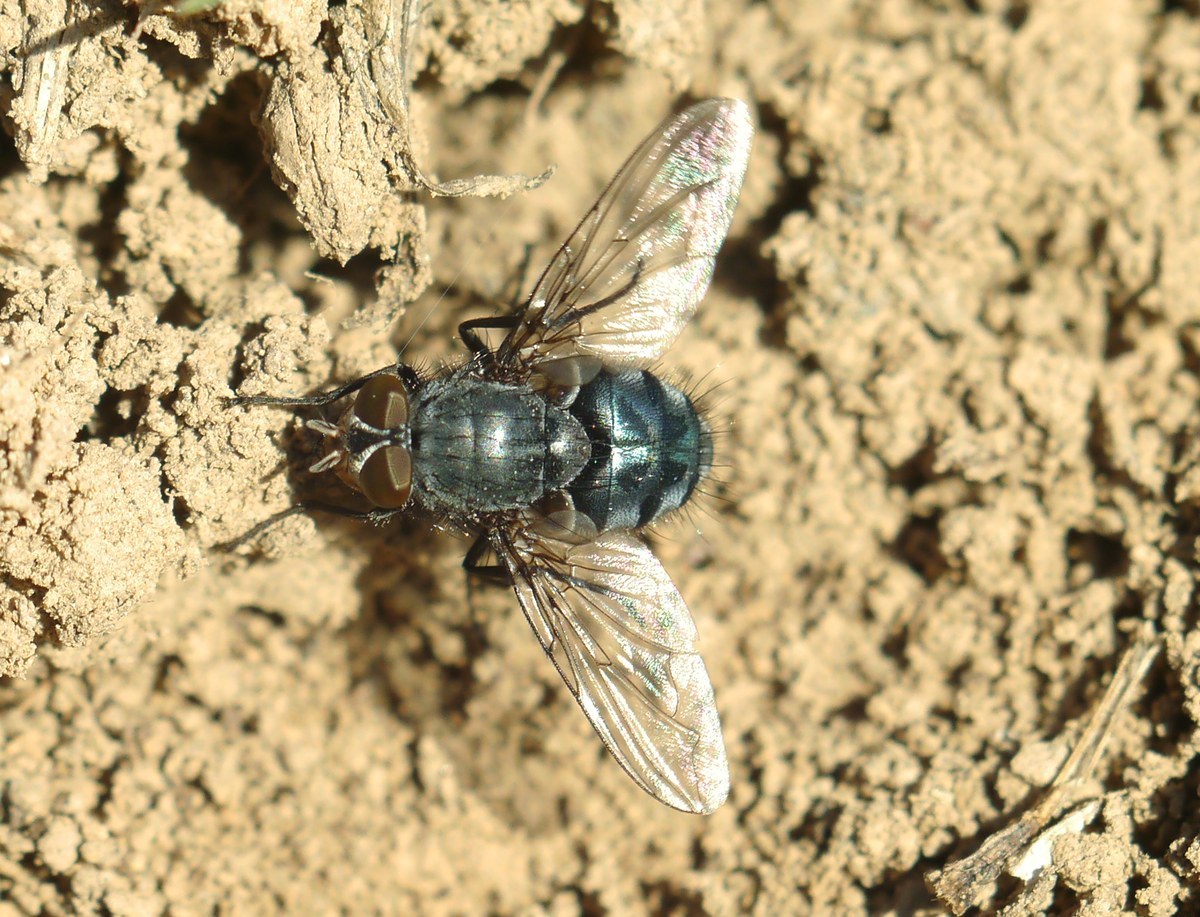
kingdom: Animalia
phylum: Arthropoda
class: Insecta
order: Diptera
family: Calliphoridae
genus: Calliphora
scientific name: Calliphora
